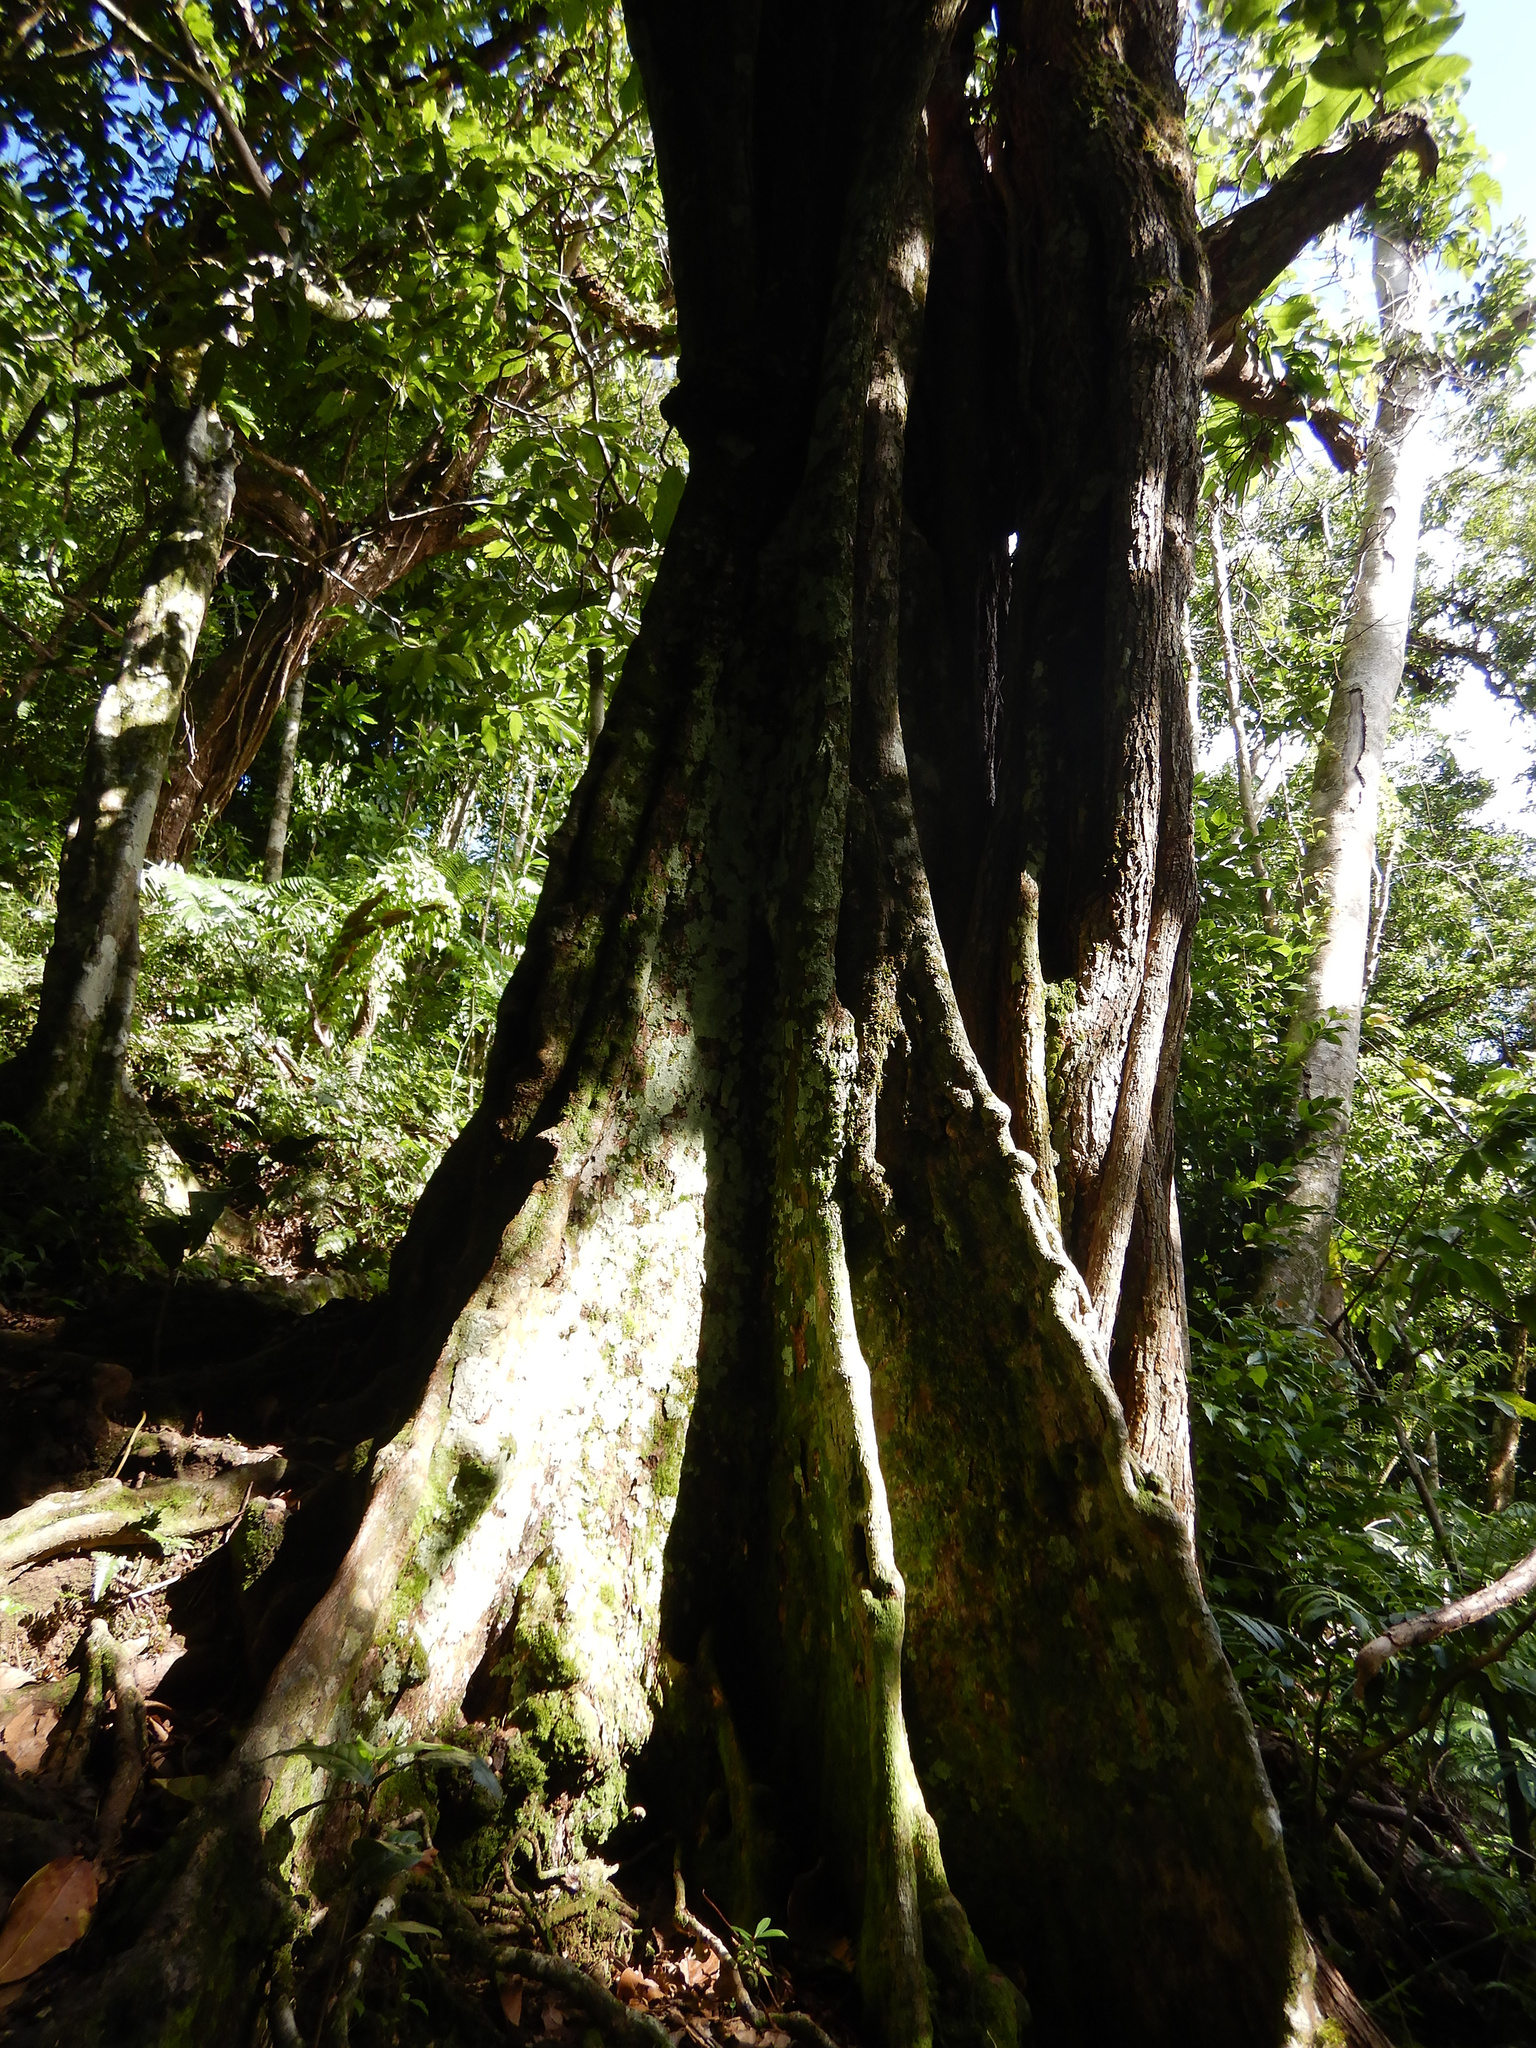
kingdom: Plantae
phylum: Tracheophyta
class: Magnoliopsida
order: Fabales
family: Fabaceae
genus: Inocarpus
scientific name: Inocarpus fagifer
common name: Polynesian chestnut
